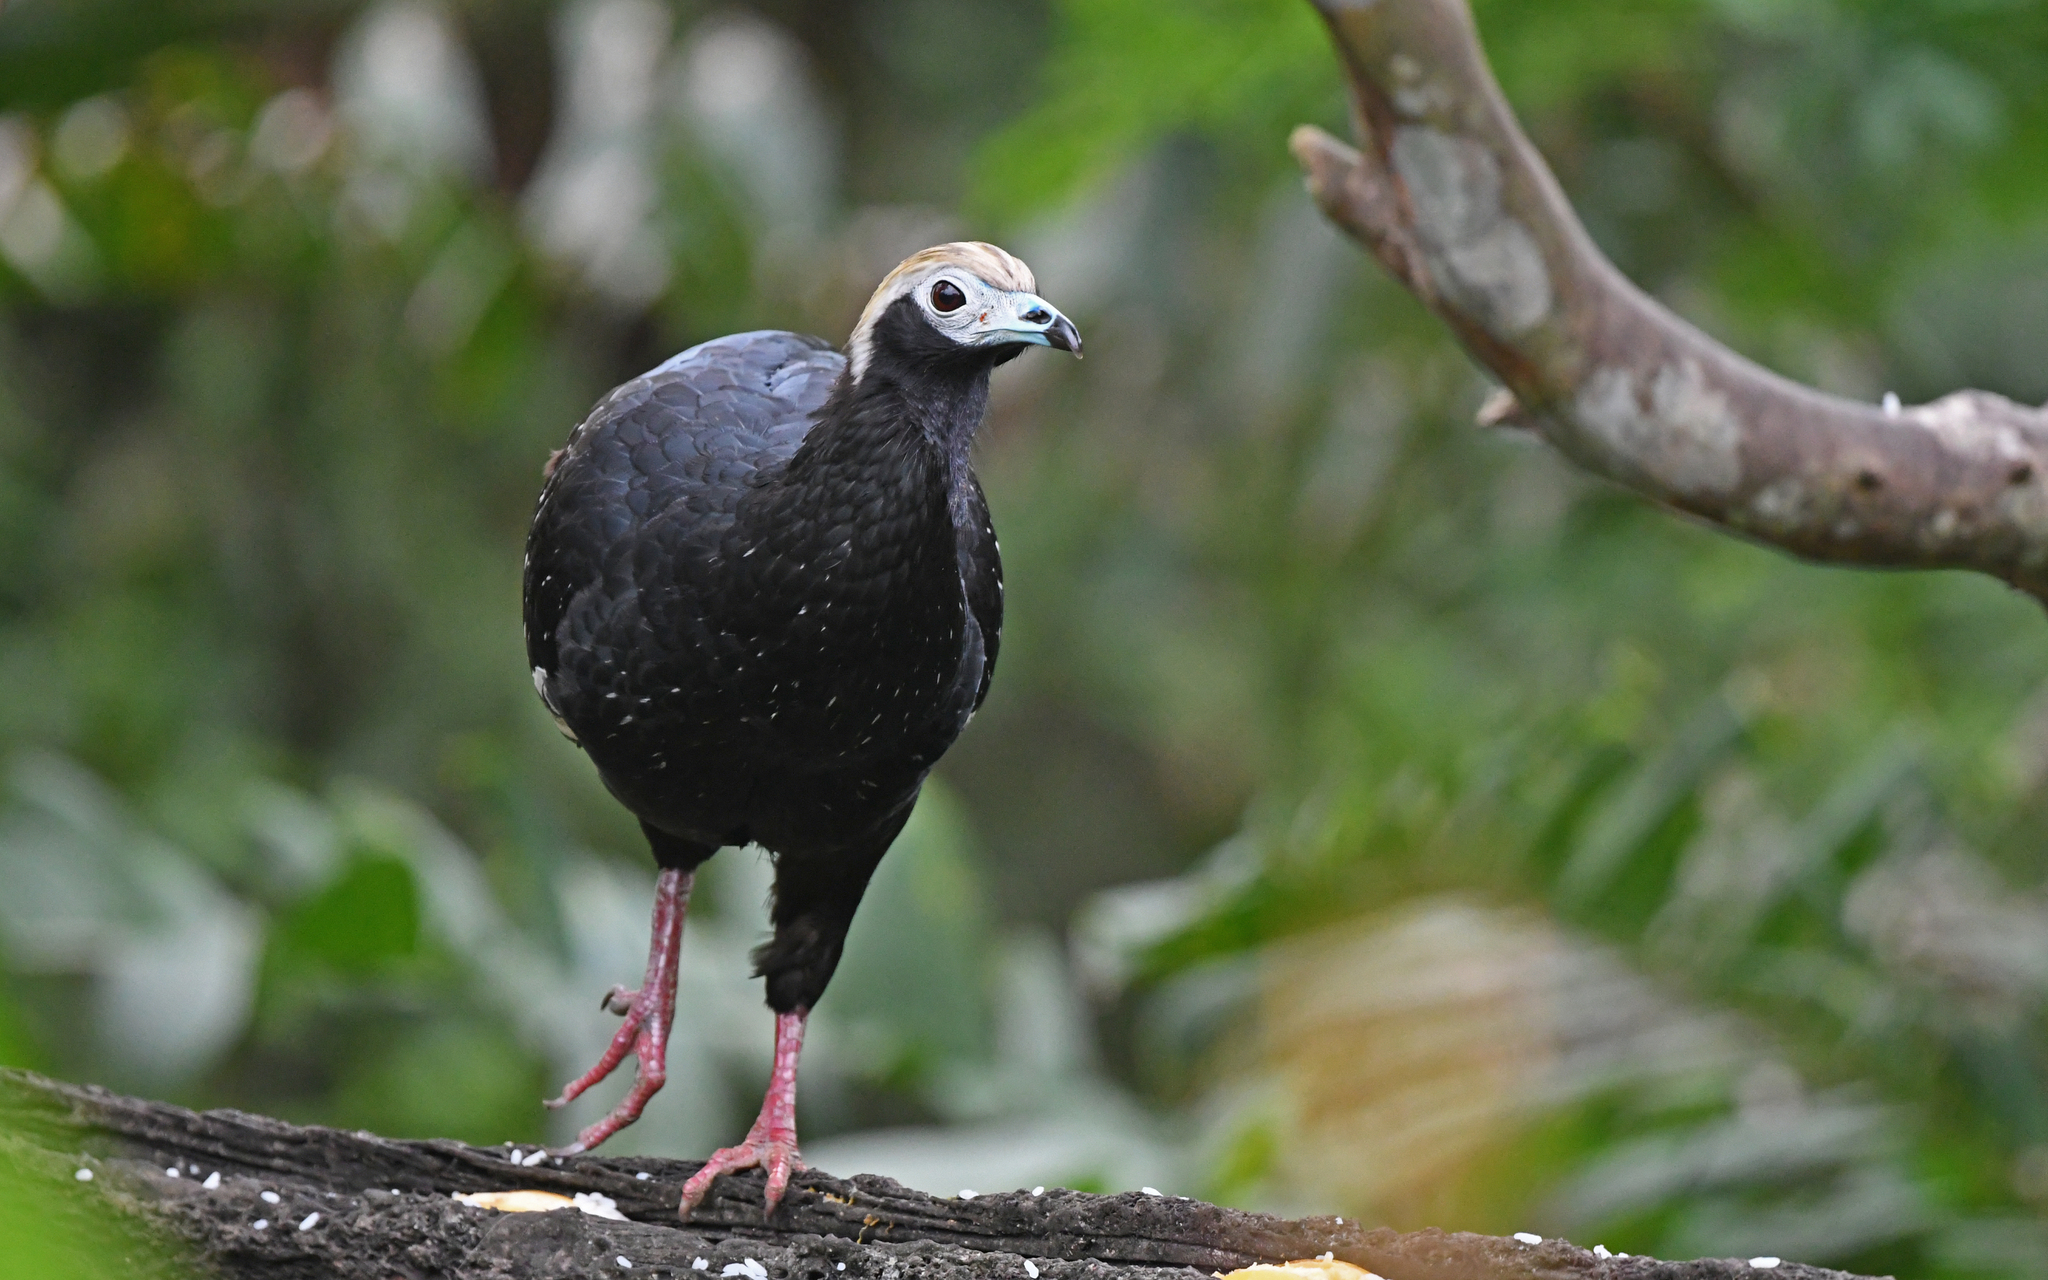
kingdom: Animalia
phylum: Chordata
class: Aves
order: Galliformes
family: Cracidae
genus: Pipile
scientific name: Pipile cumanensis
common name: Blue-throated piping-guan
